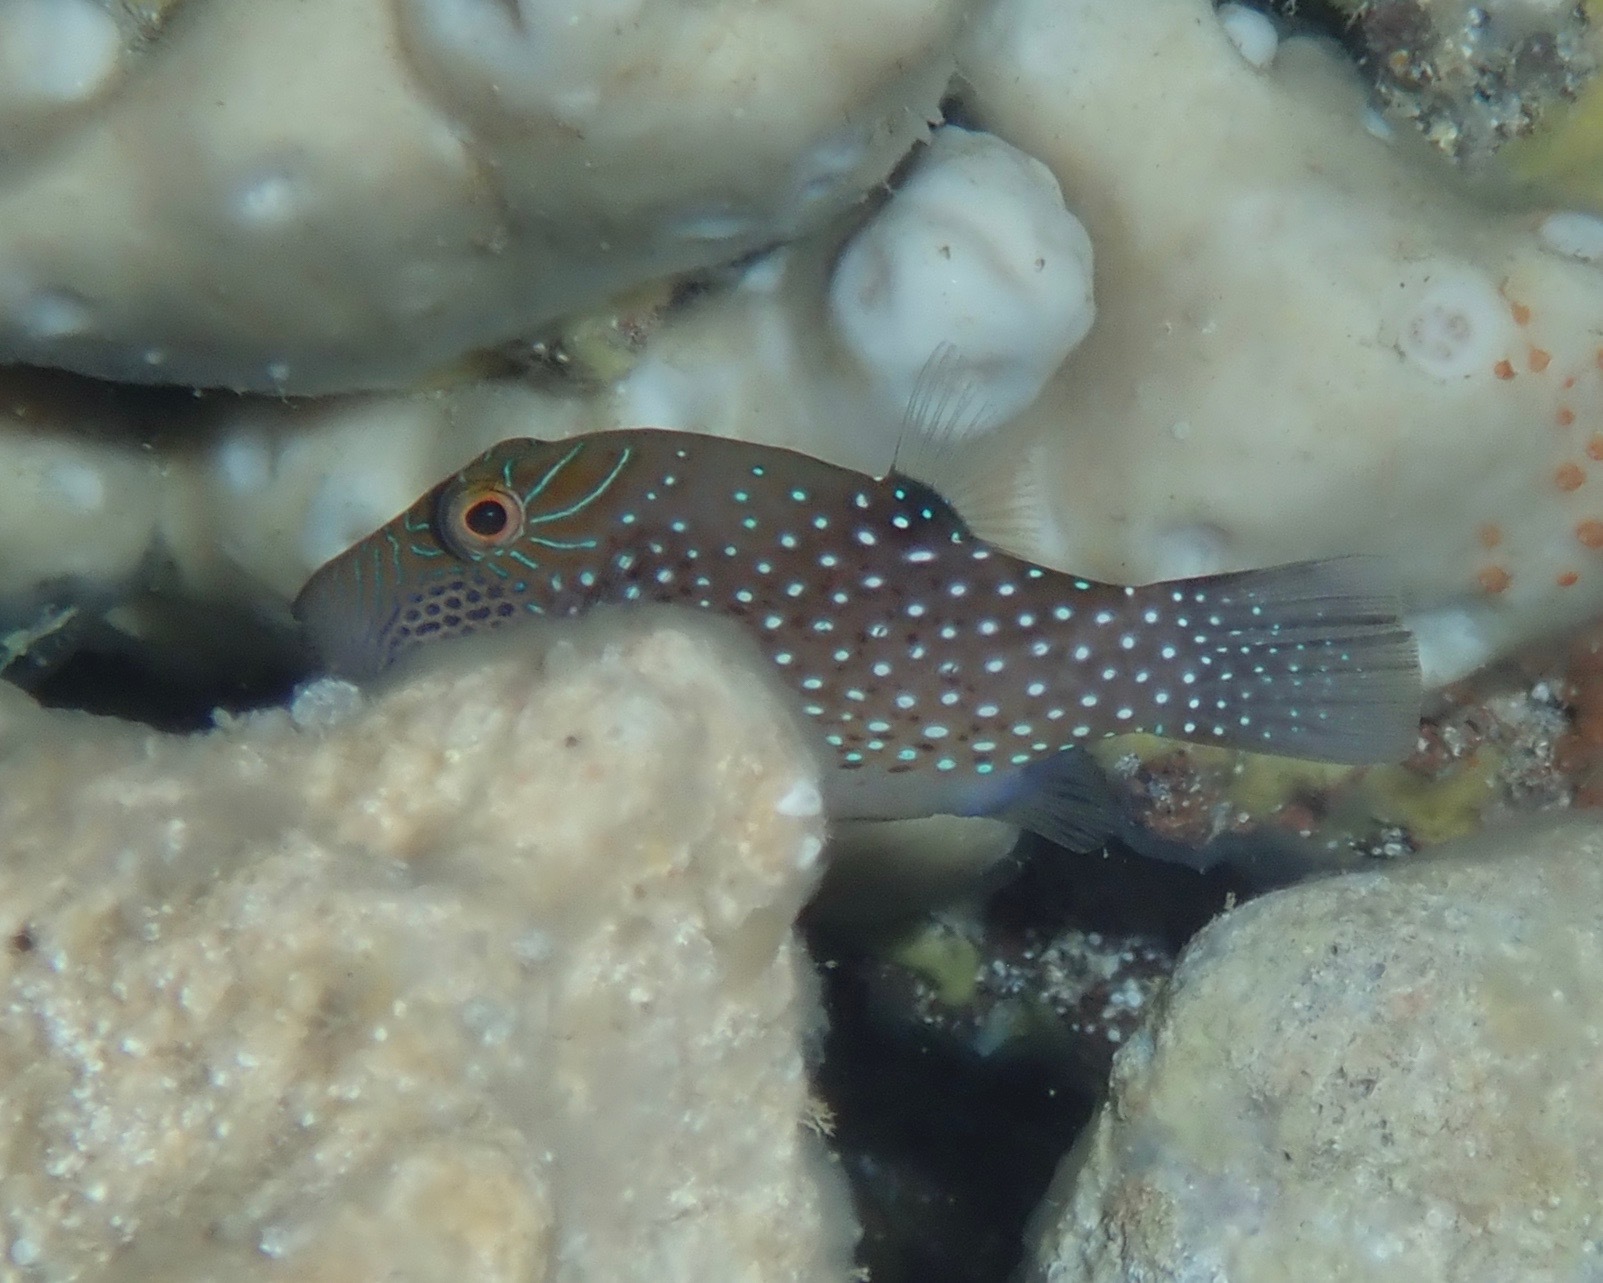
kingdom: Animalia
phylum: Chordata
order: Tetraodontiformes
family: Tetraodontidae
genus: Canthigaster
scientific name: Canthigaster amboinensis
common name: Ambon pufferfish
